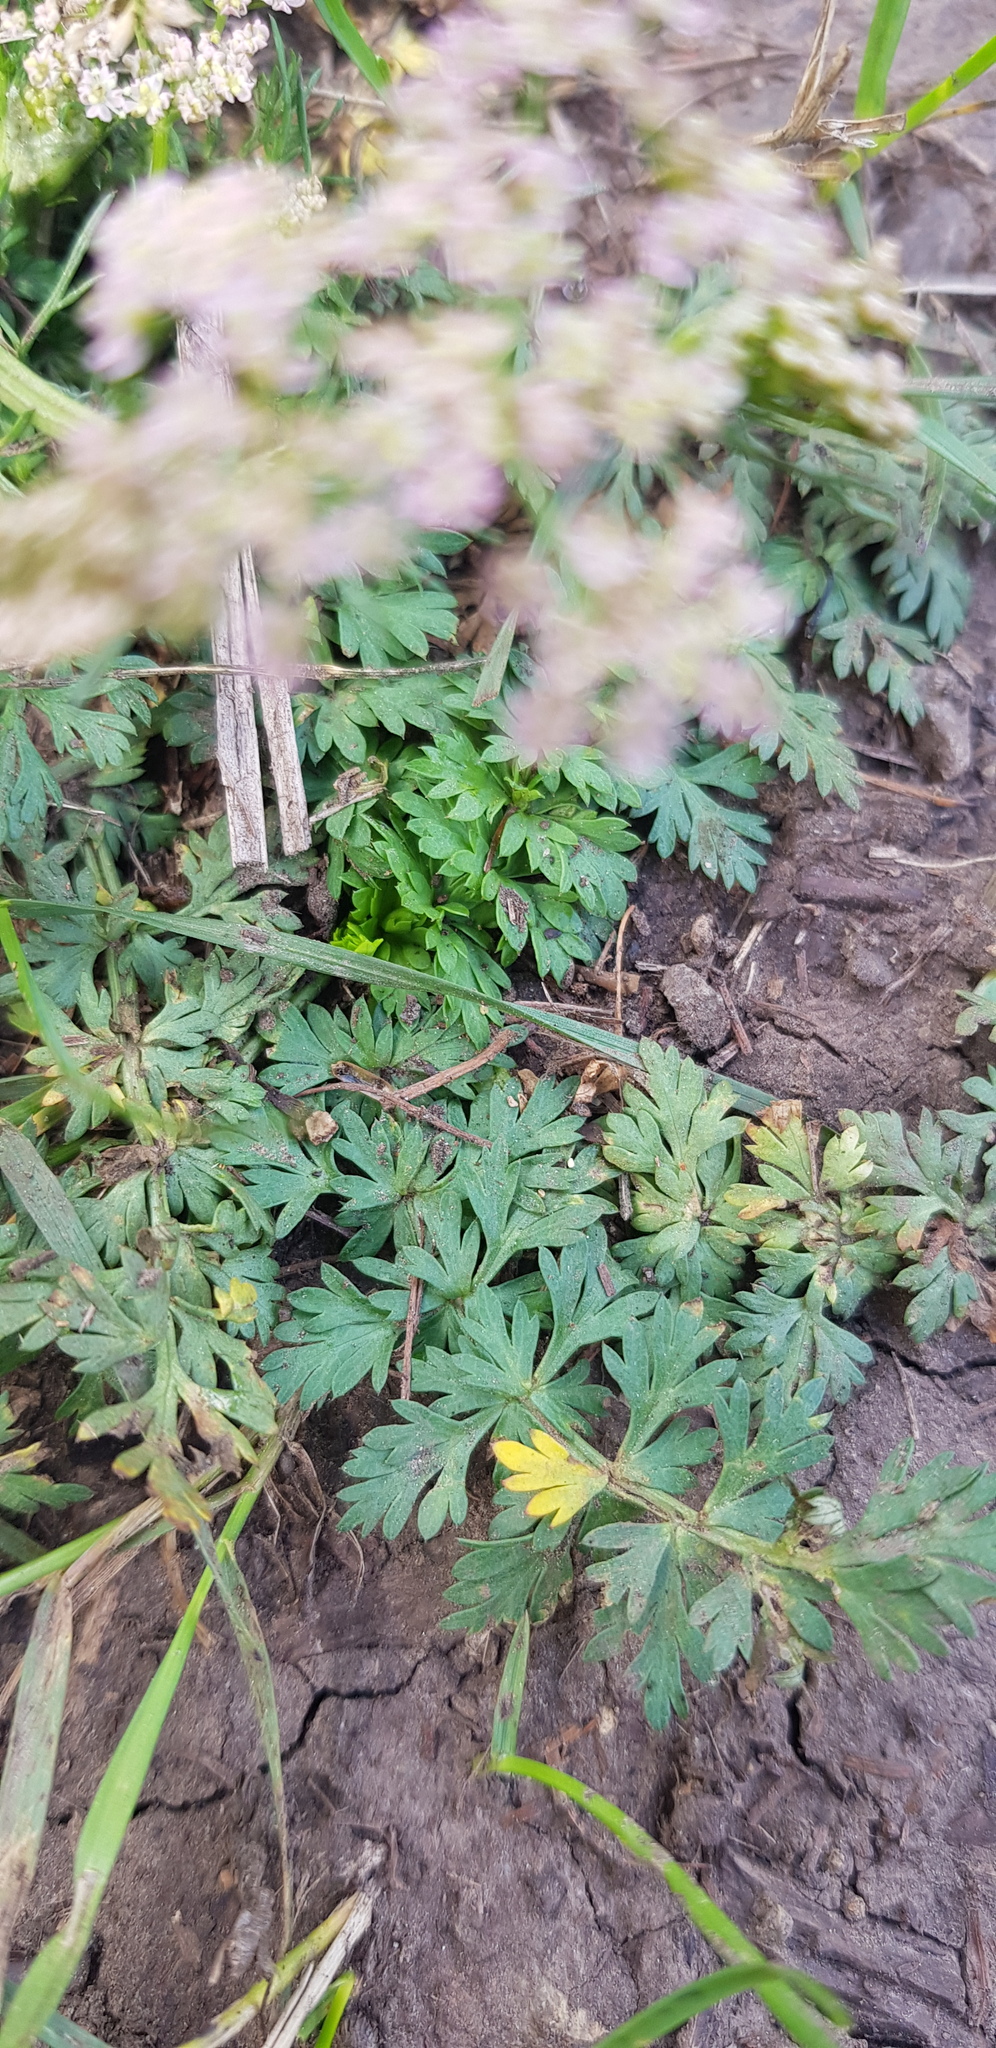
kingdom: Plantae
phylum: Tracheophyta
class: Magnoliopsida
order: Apiales
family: Apiaceae
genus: Sphallerocarpus
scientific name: Sphallerocarpus gracilis
